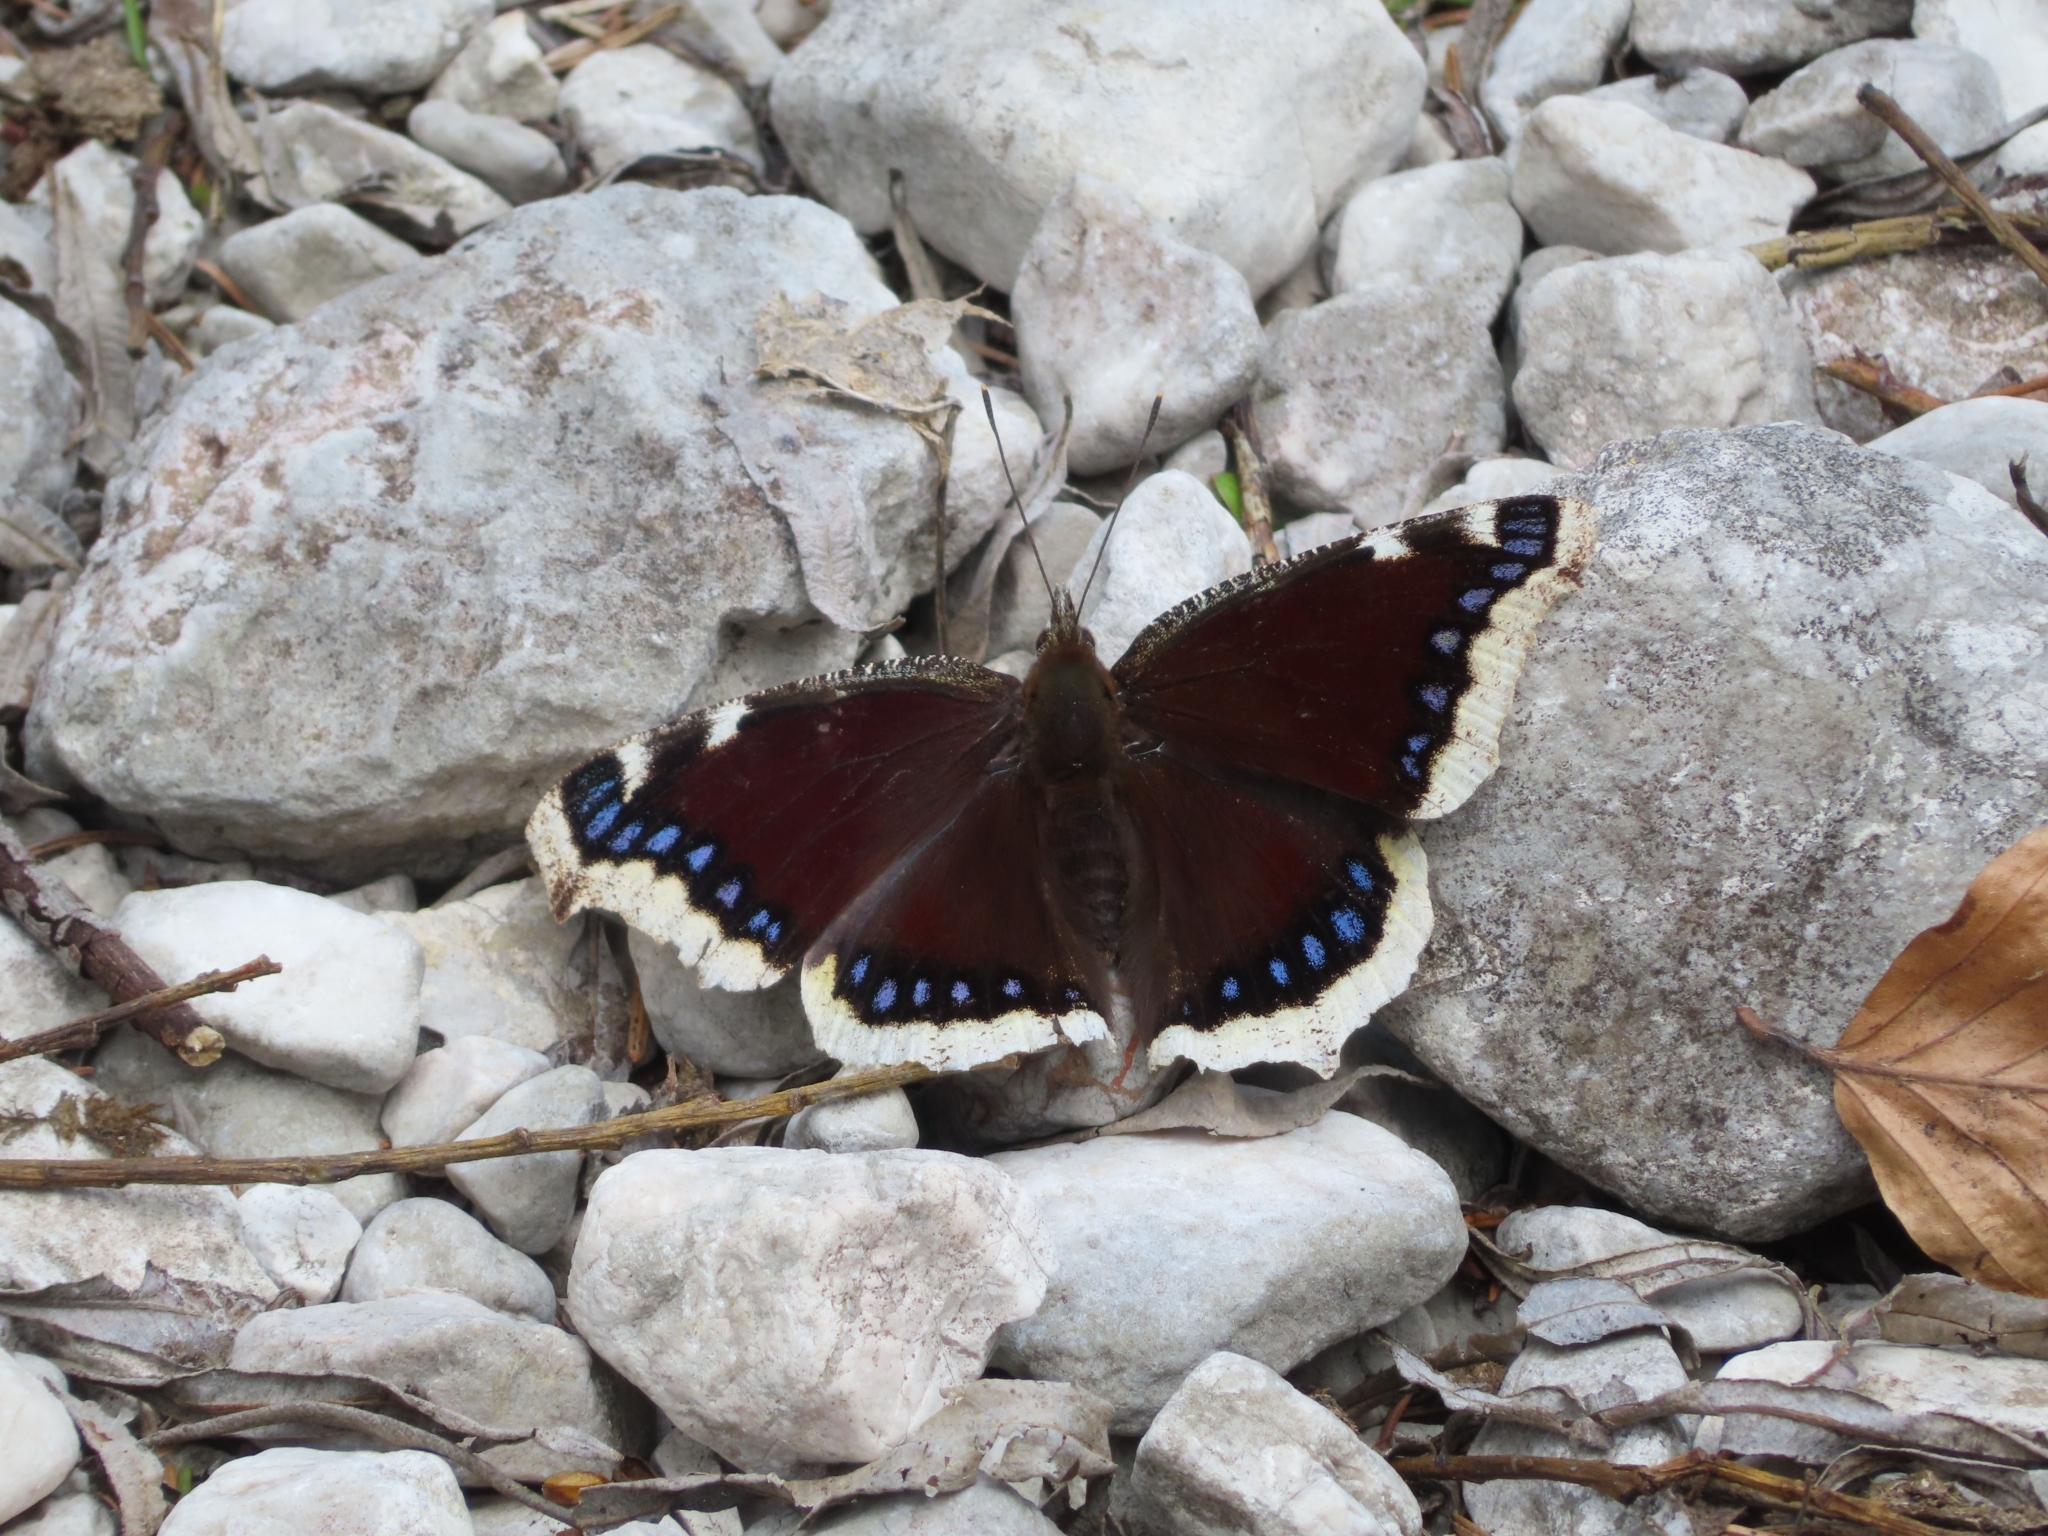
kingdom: Animalia
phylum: Arthropoda
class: Insecta
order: Lepidoptera
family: Nymphalidae
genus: Nymphalis
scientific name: Nymphalis antiopa
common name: Camberwell beauty
